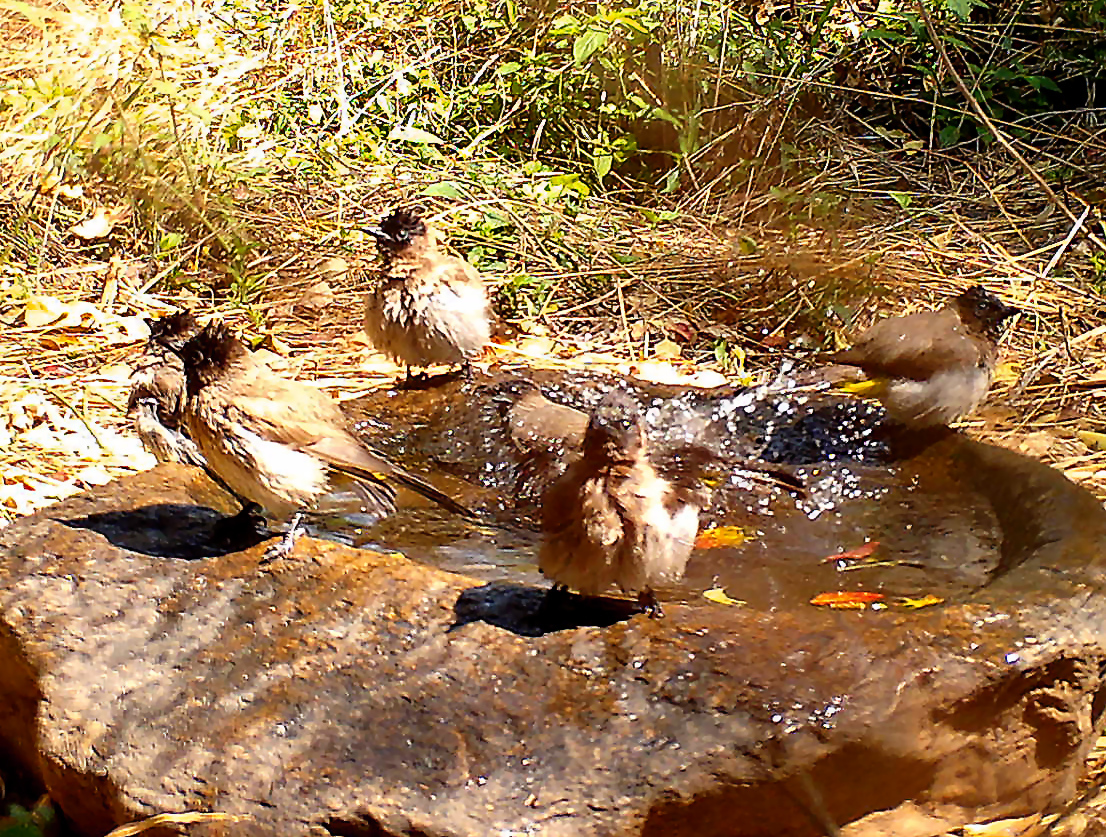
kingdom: Animalia
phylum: Chordata
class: Aves
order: Passeriformes
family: Pycnonotidae
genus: Pycnonotus
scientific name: Pycnonotus barbatus
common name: Common bulbul
